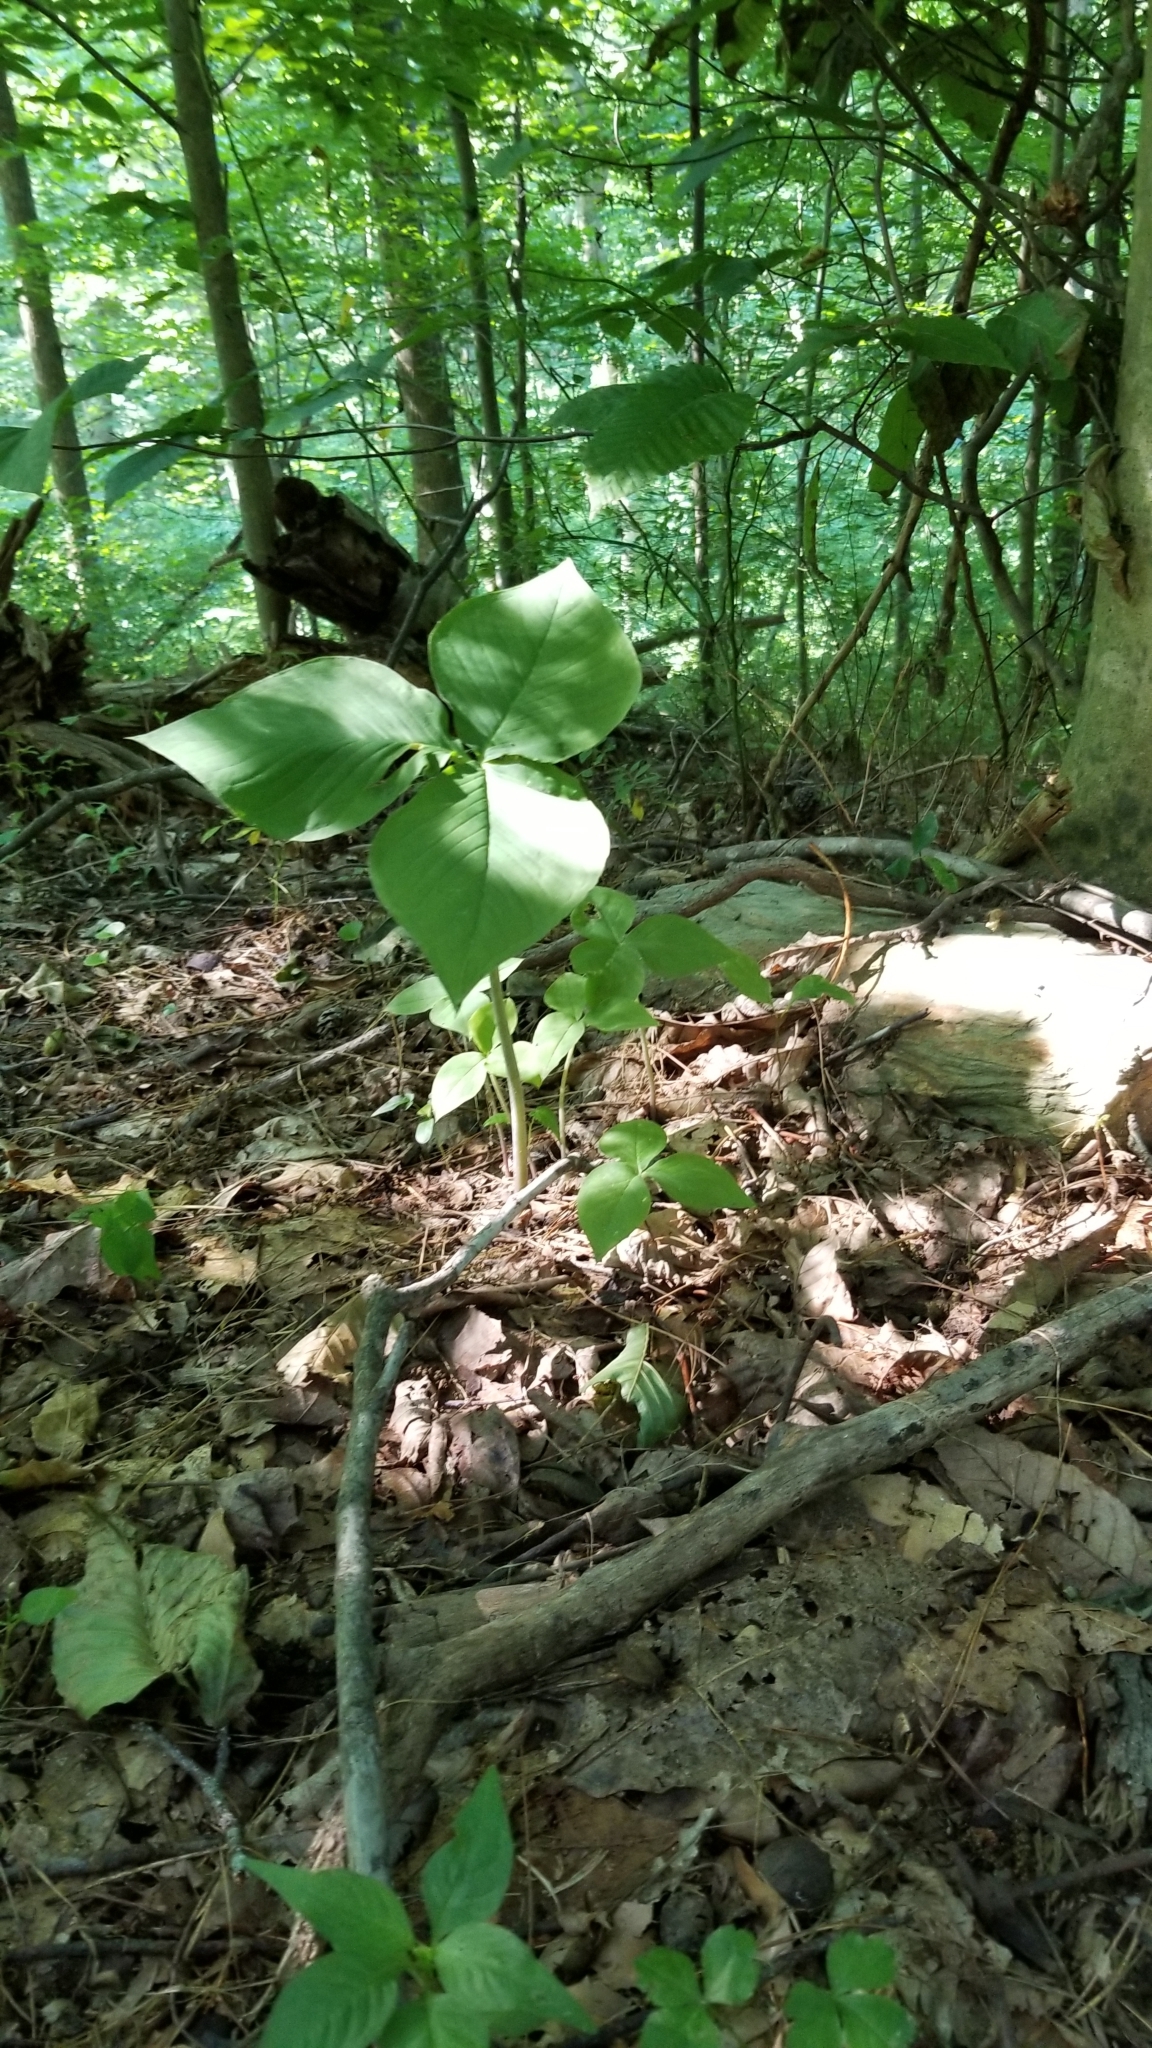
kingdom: Plantae
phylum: Tracheophyta
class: Liliopsida
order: Alismatales
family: Araceae
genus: Arisaema
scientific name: Arisaema triphyllum
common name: Jack-in-the-pulpit
